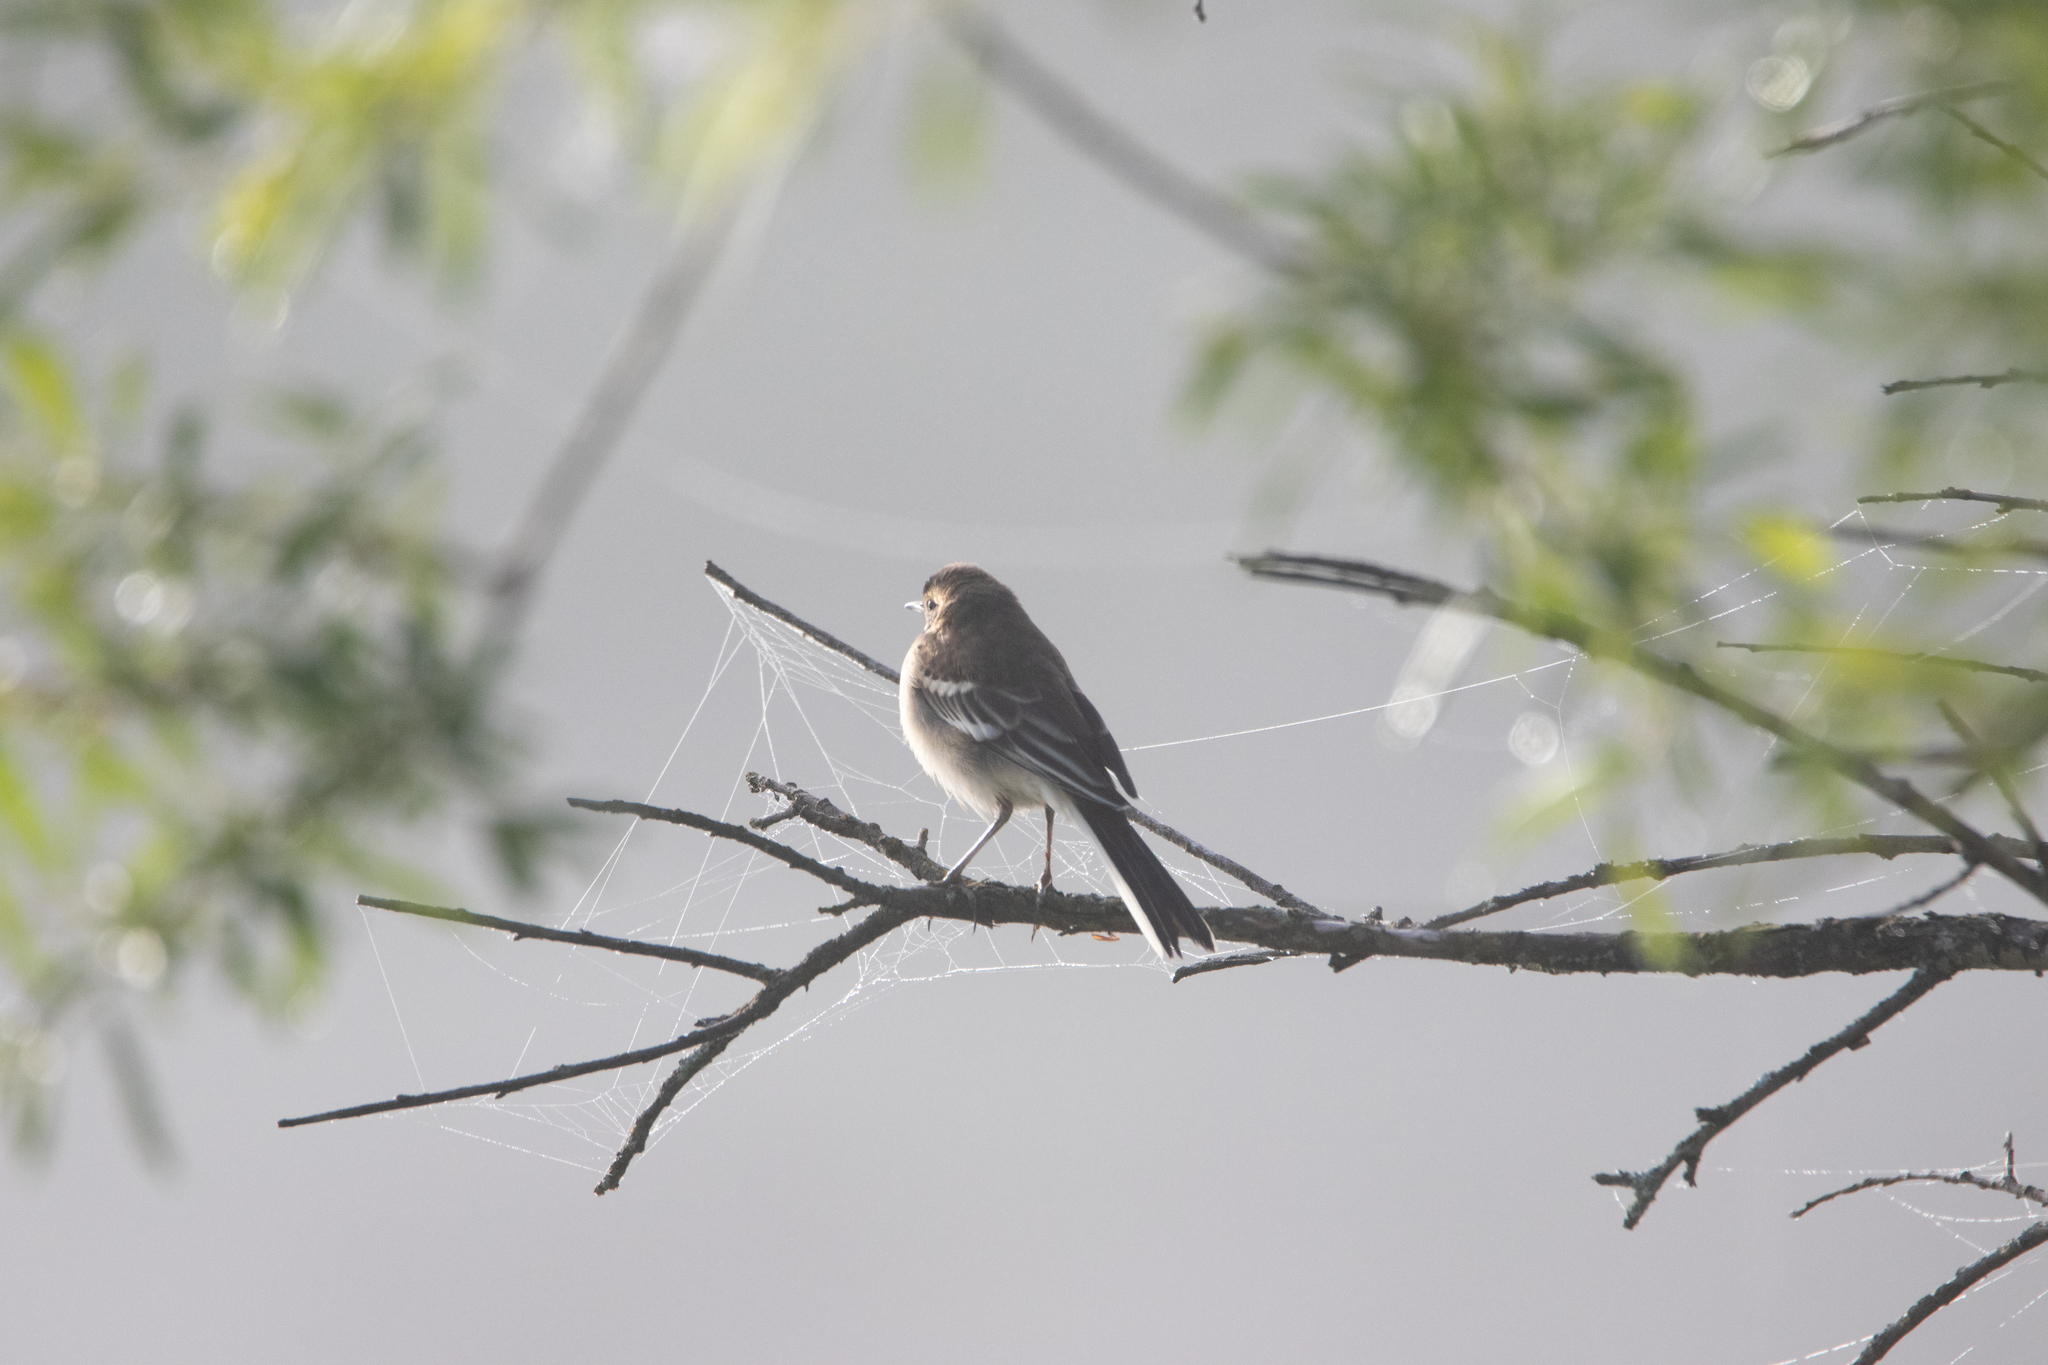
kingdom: Animalia
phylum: Chordata
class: Aves
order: Passeriformes
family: Motacillidae
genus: Motacilla
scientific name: Motacilla citreola
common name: Citrine wagtail
